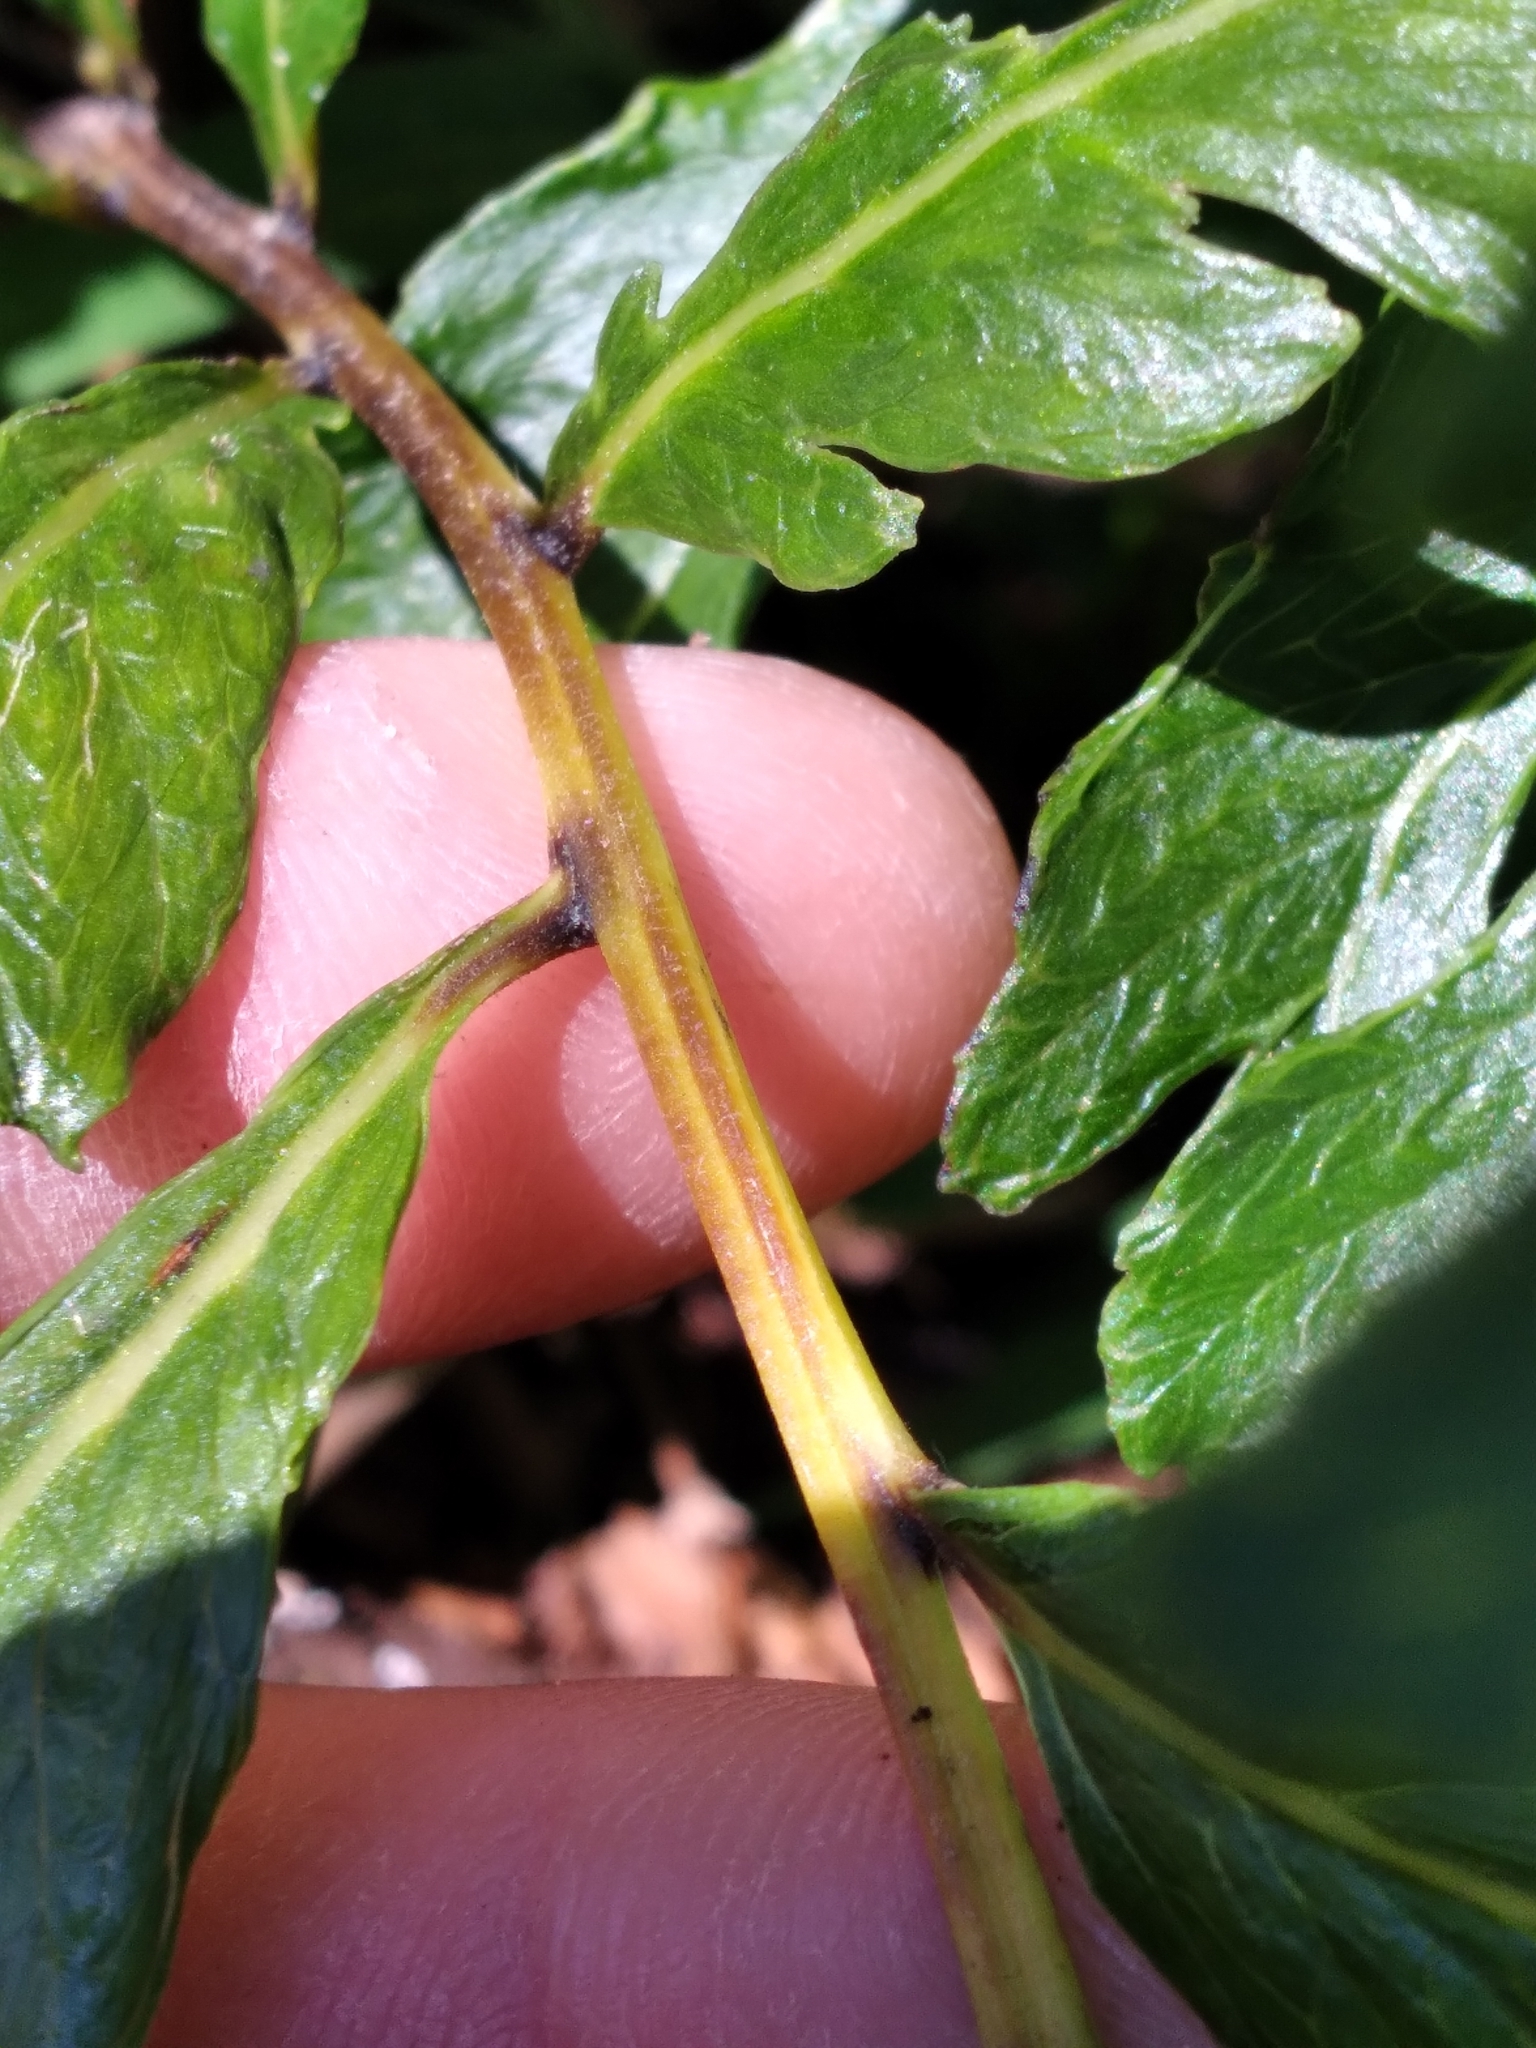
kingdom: Plantae
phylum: Tracheophyta
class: Polypodiopsida
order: Polypodiales
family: Thelypteridaceae
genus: Meniscium
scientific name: Meniscium serratum
